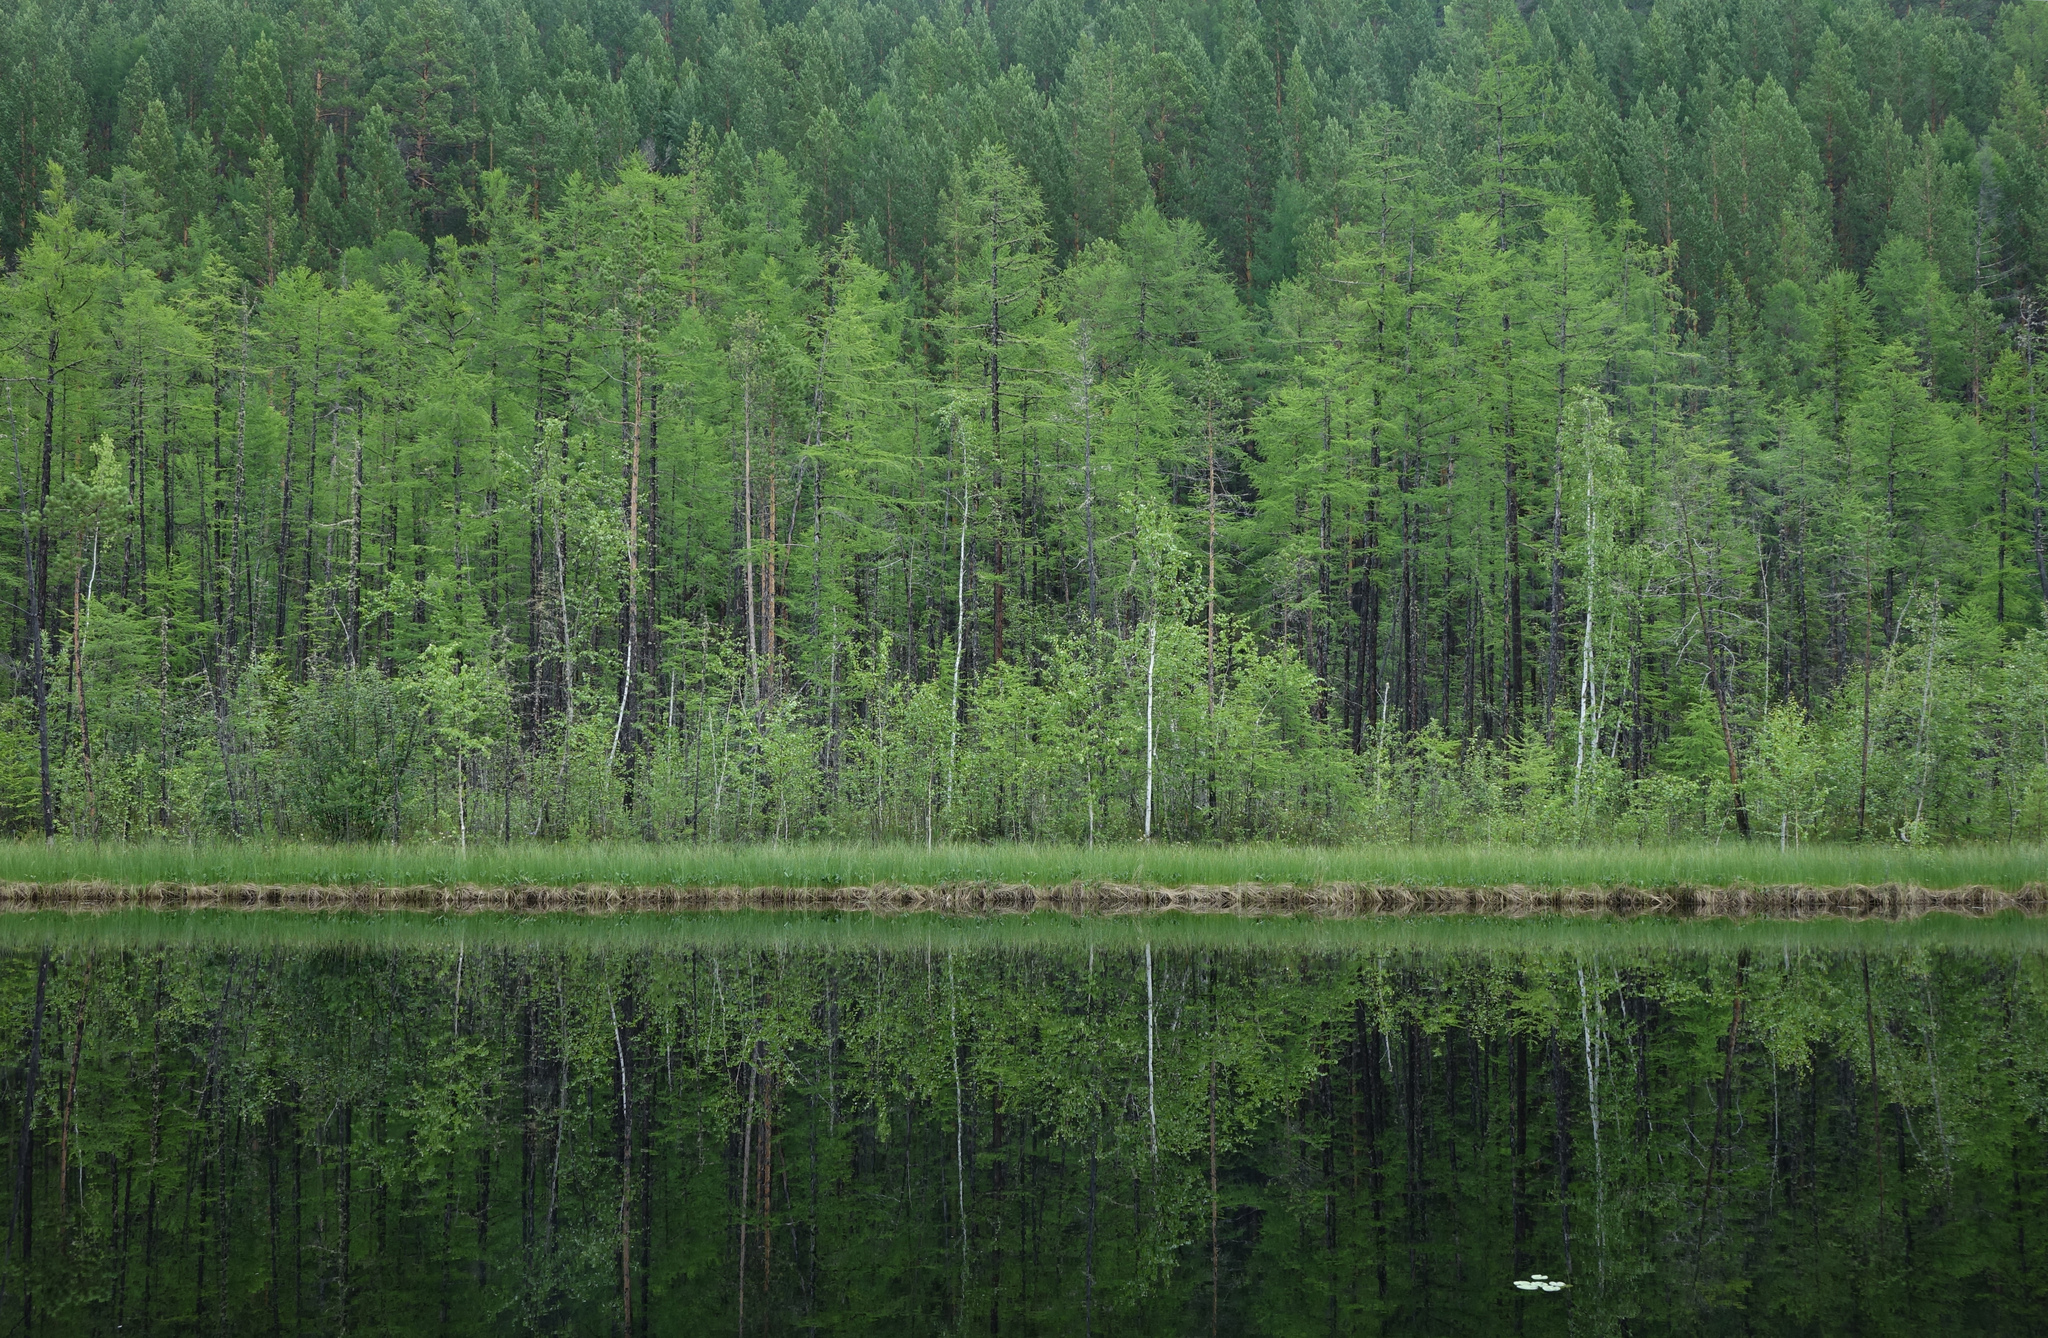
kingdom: Plantae
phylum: Tracheophyta
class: Pinopsida
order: Pinales
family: Pinaceae
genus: Larix
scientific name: Larix gmelinii
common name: Dahurian larch
